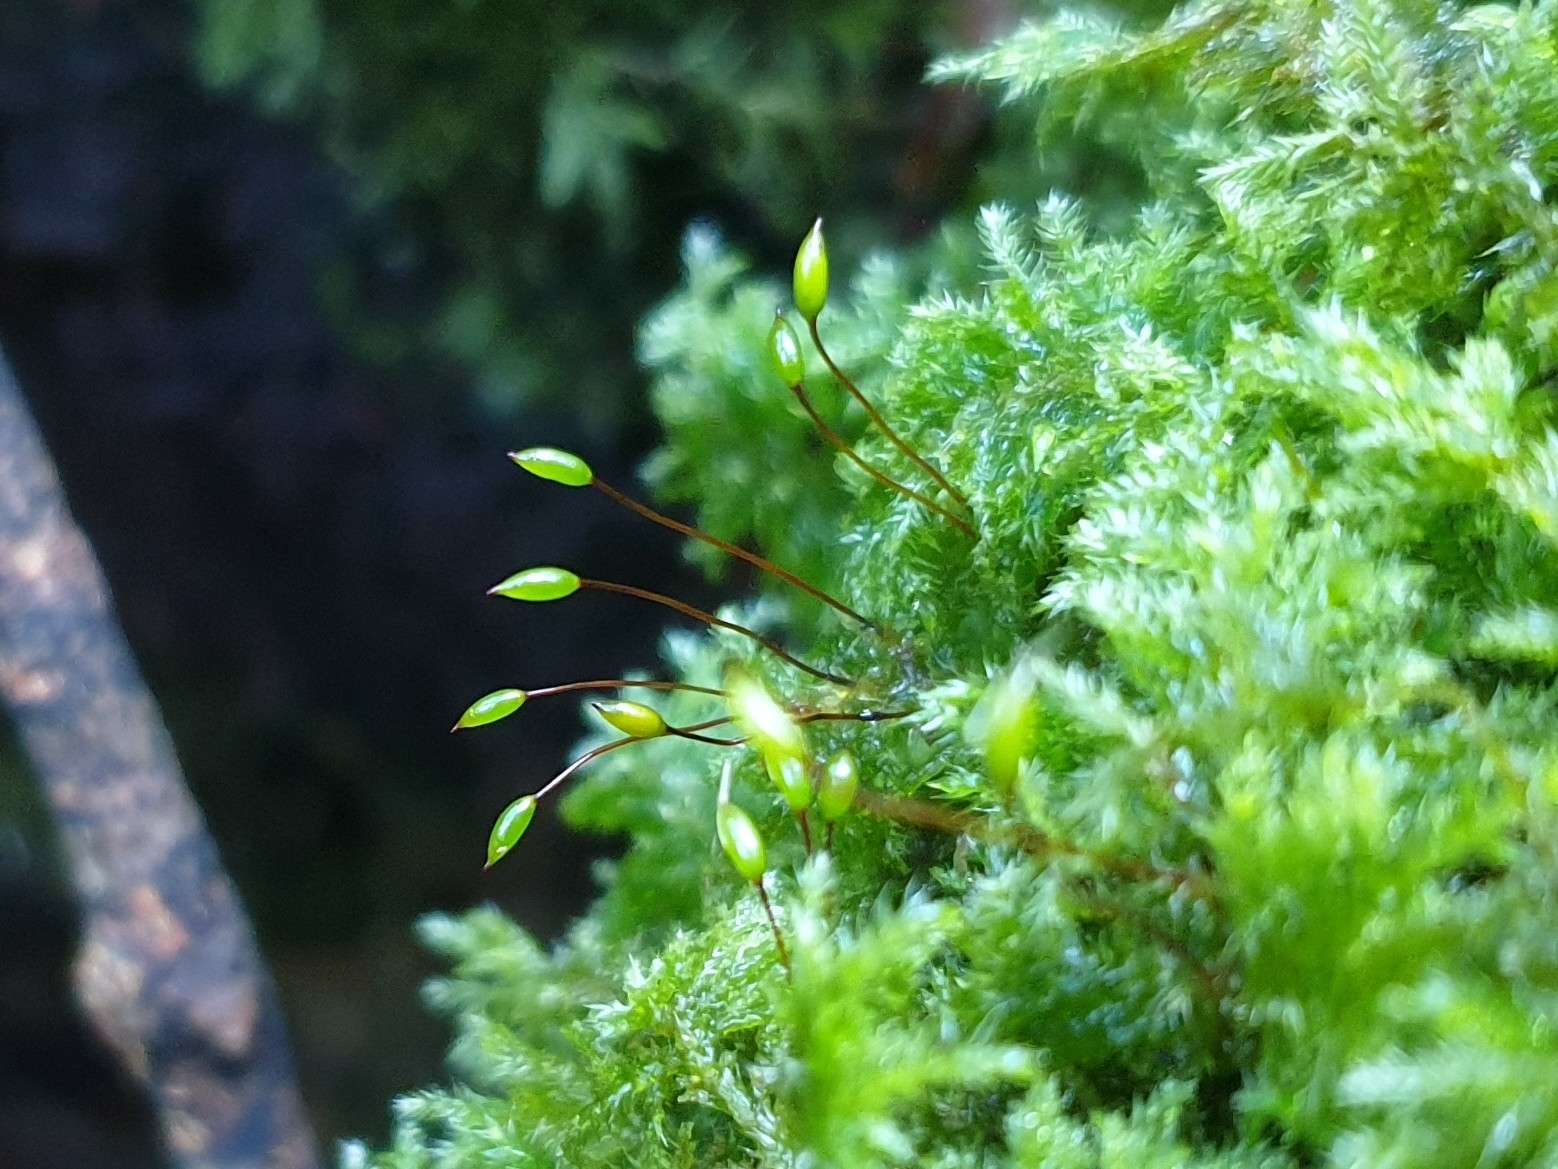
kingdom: Plantae
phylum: Bryophyta
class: Bryopsida
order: Hypnales
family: Thuidiaceae
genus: Thuidium
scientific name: Thuidium tamariscinum
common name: Common tamarisk-moss
